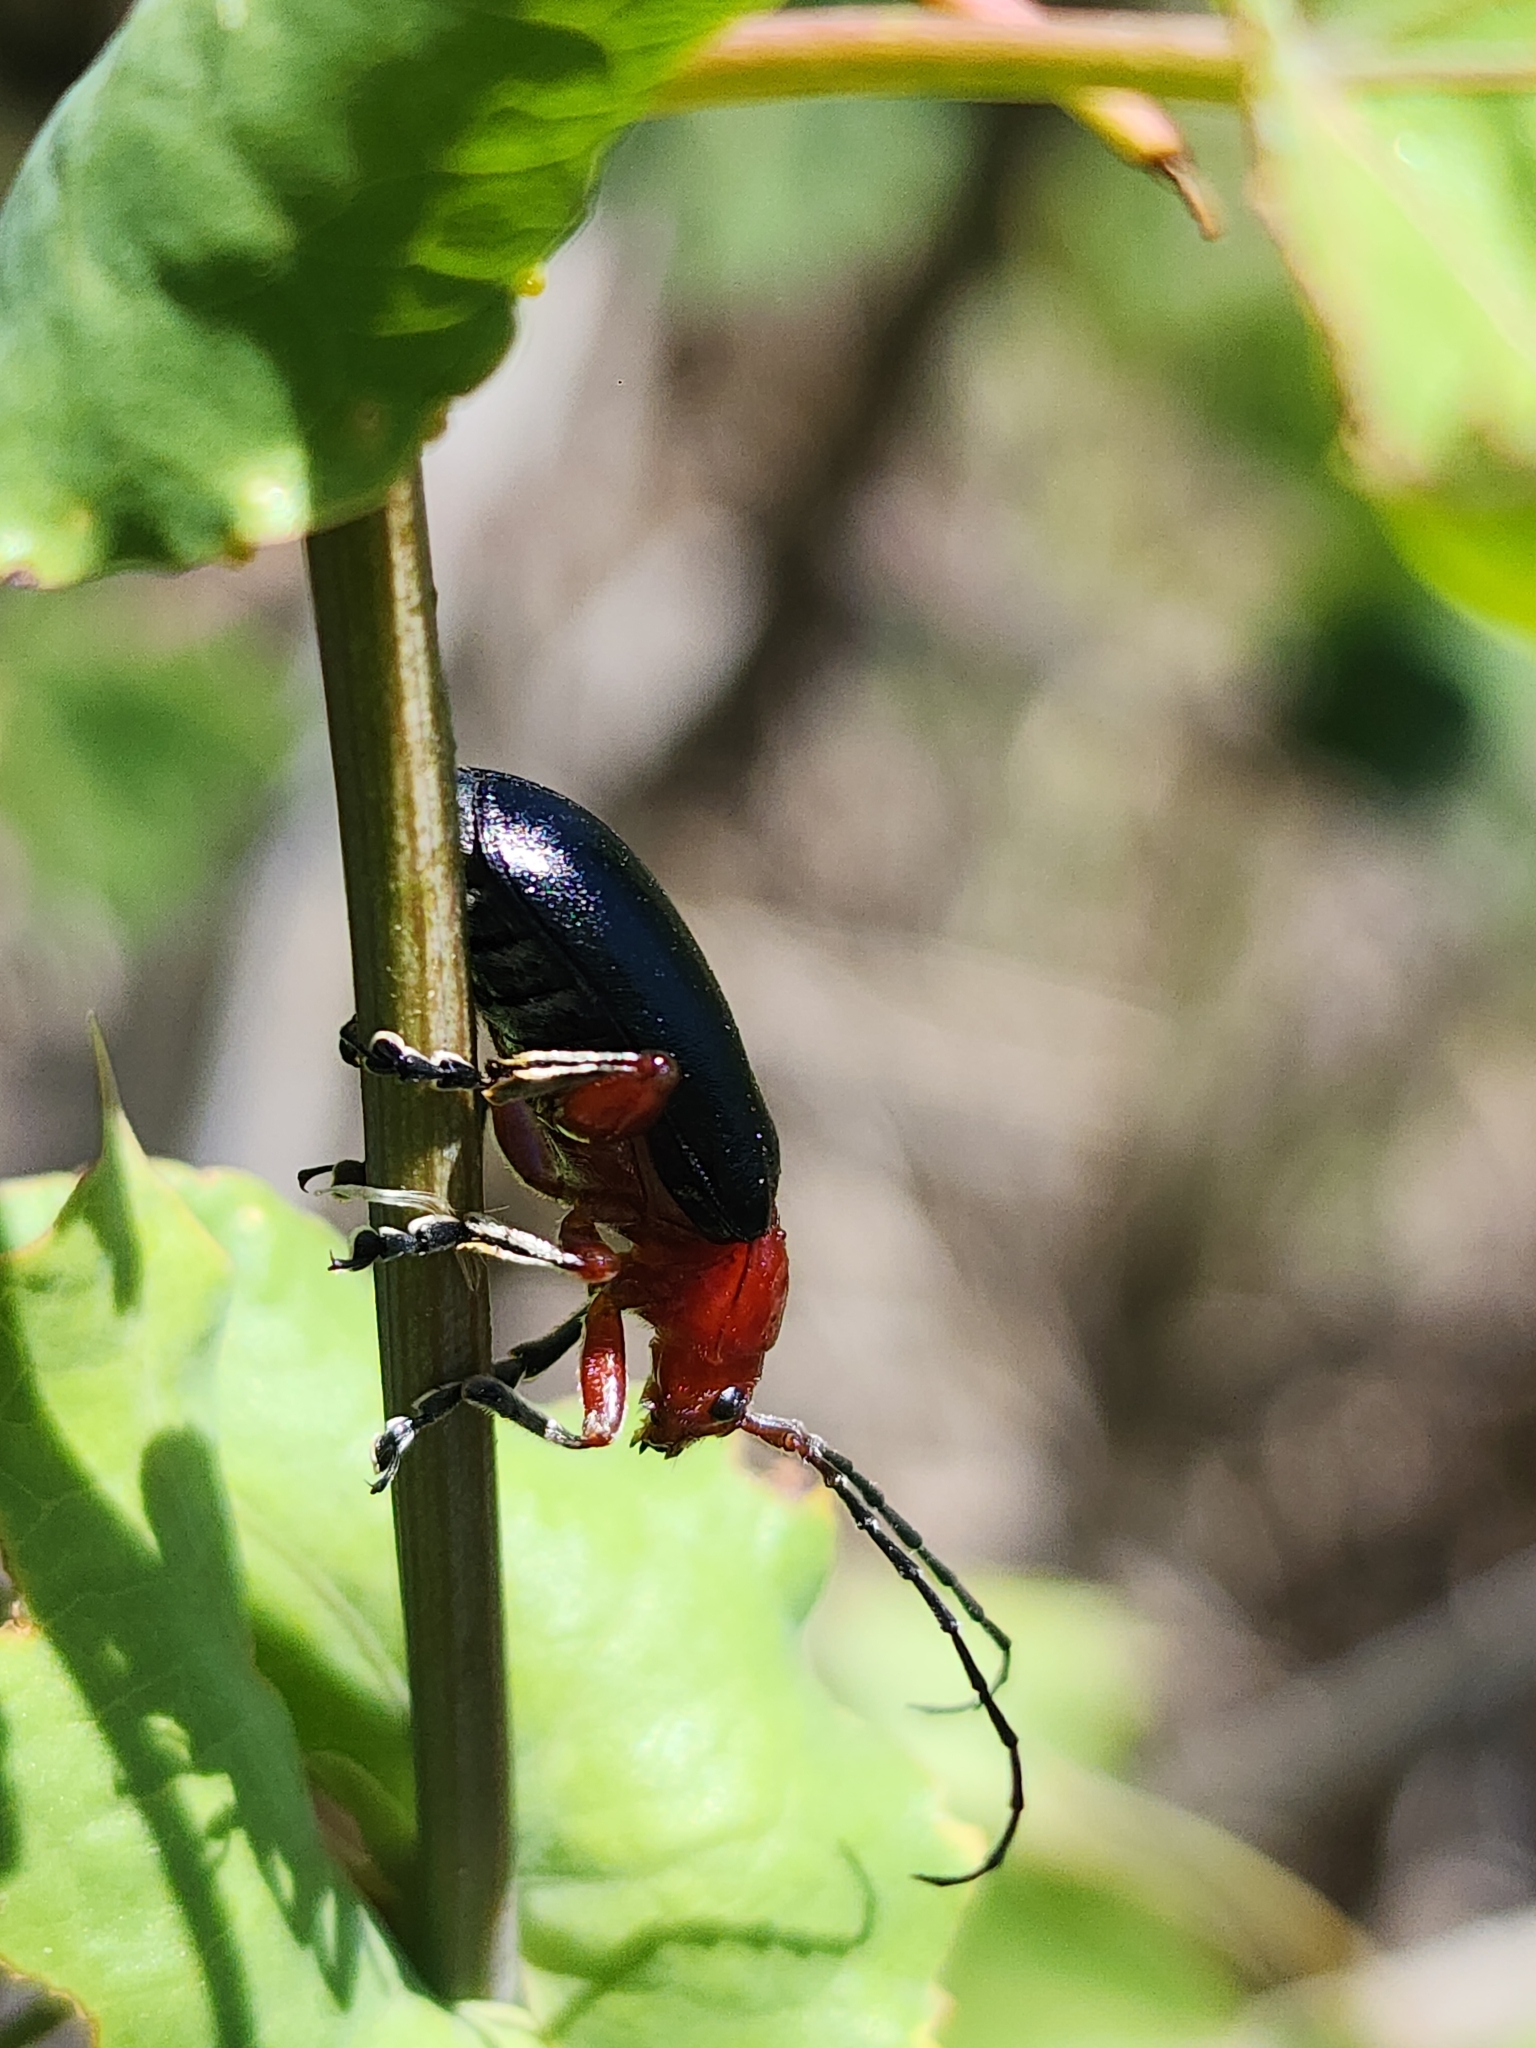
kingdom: Animalia
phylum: Arthropoda
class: Insecta
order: Coleoptera
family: Chrysomelidae
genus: Cacoscelis
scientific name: Cacoscelis
